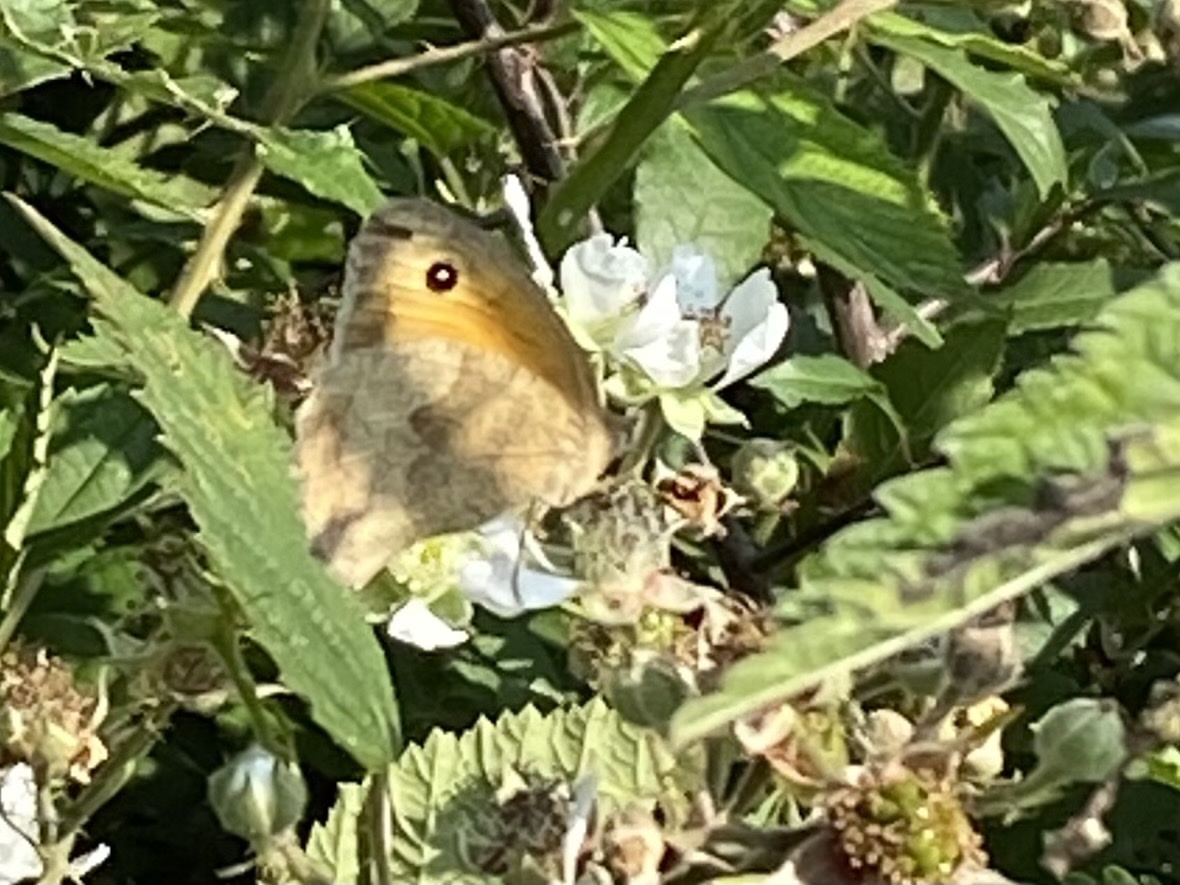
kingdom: Animalia
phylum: Arthropoda
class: Insecta
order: Lepidoptera
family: Nymphalidae
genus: Maniola
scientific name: Maniola jurtina
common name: Meadow brown
